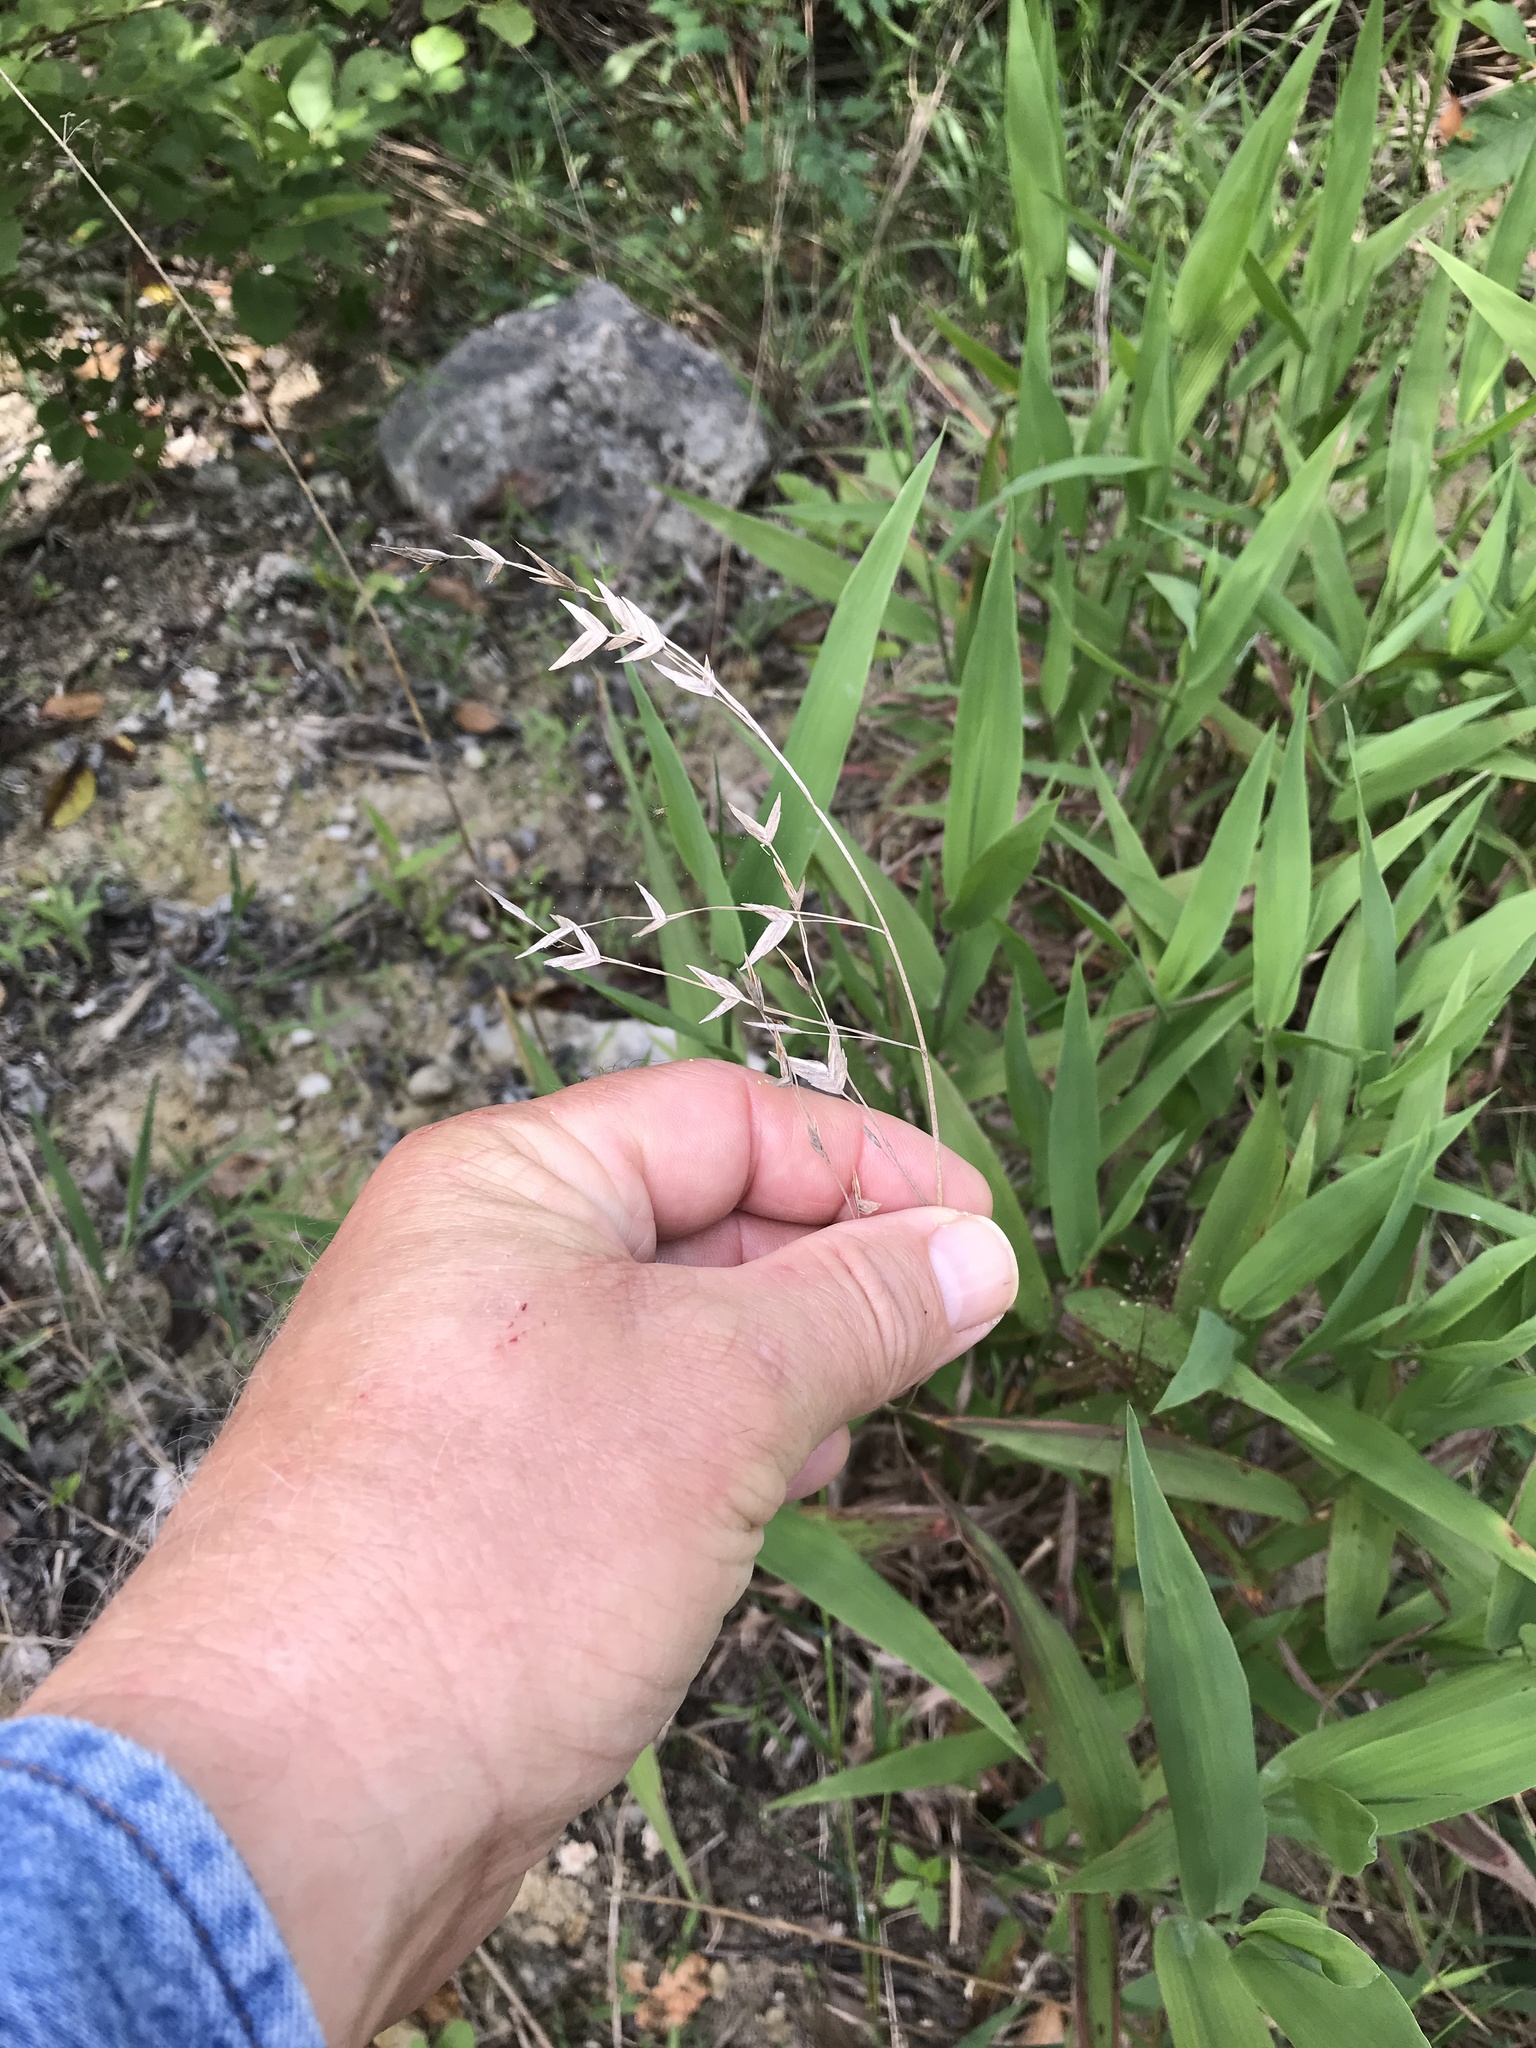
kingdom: Plantae
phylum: Tracheophyta
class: Liliopsida
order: Poales
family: Poaceae
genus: Chasmanthium
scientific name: Chasmanthium latifolium
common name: Broad-leaved chasmanthium
